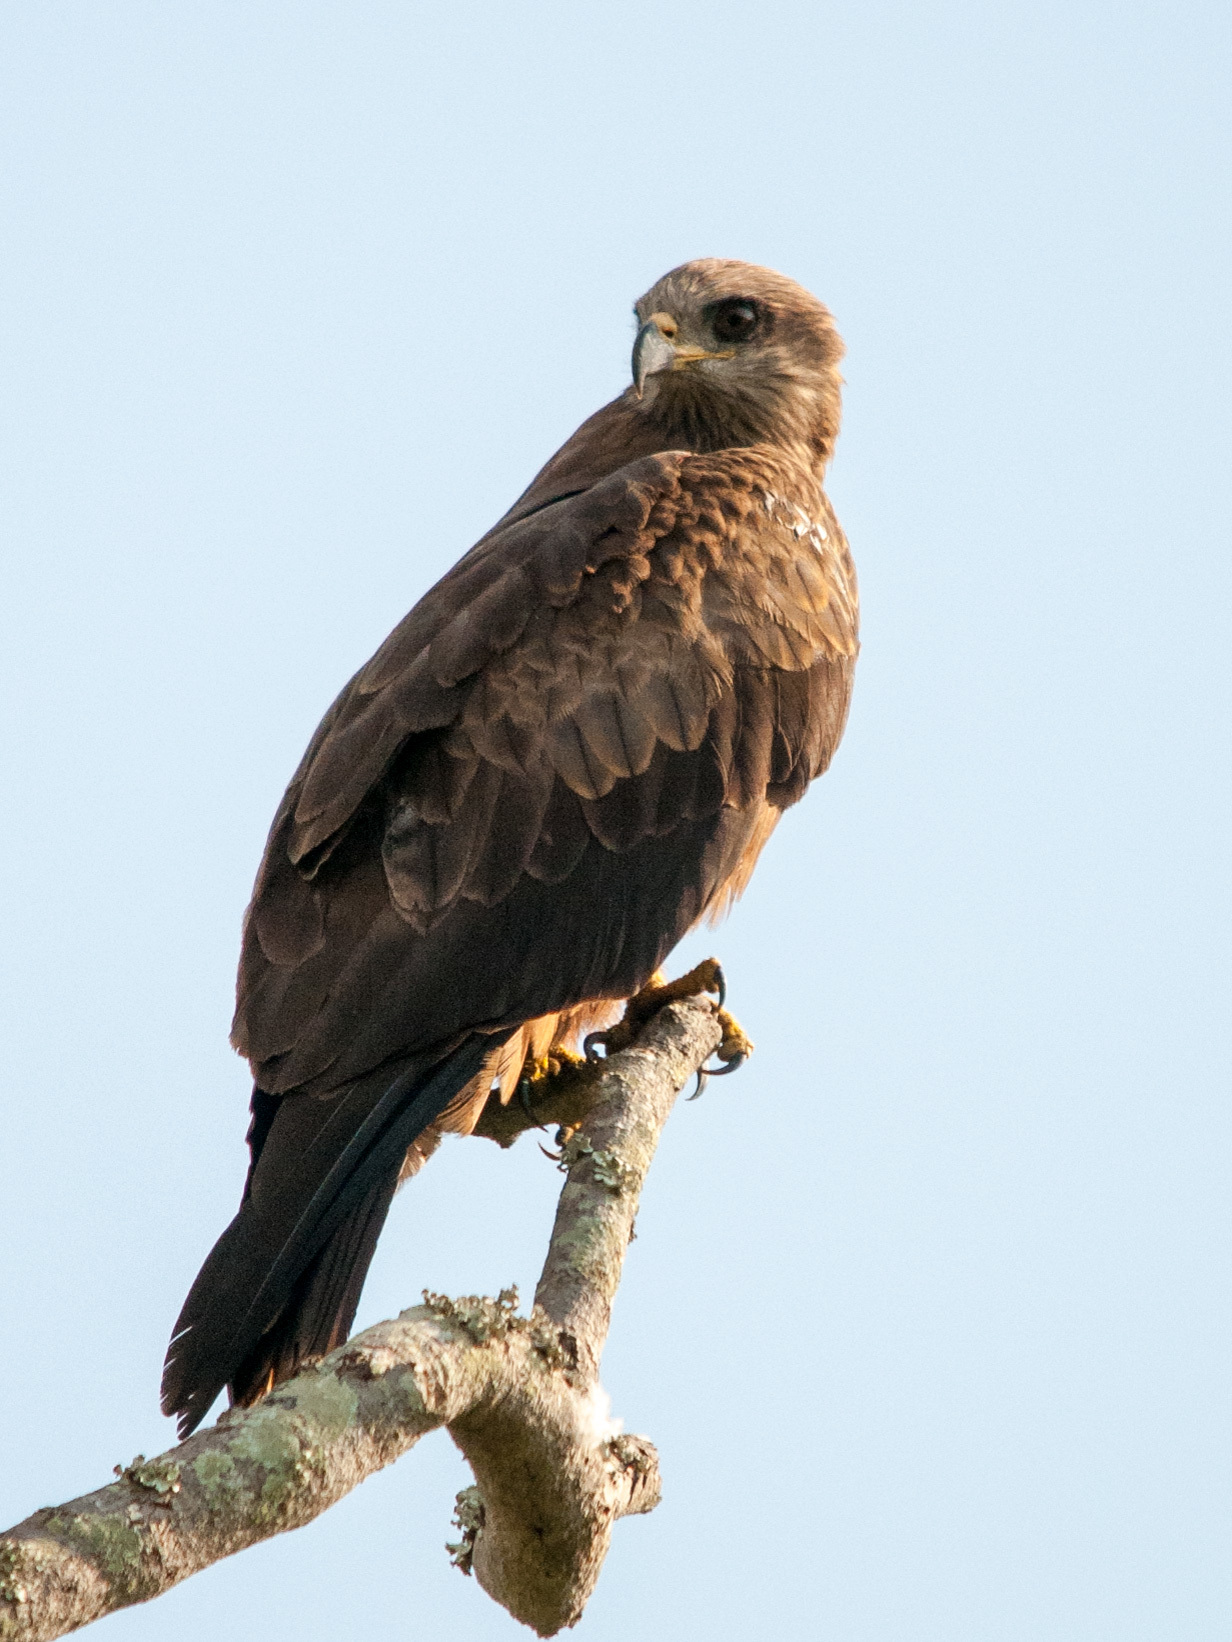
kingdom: Animalia
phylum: Chordata
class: Aves
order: Accipitriformes
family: Accipitridae
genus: Milvus
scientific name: Milvus migrans
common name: Black kite
